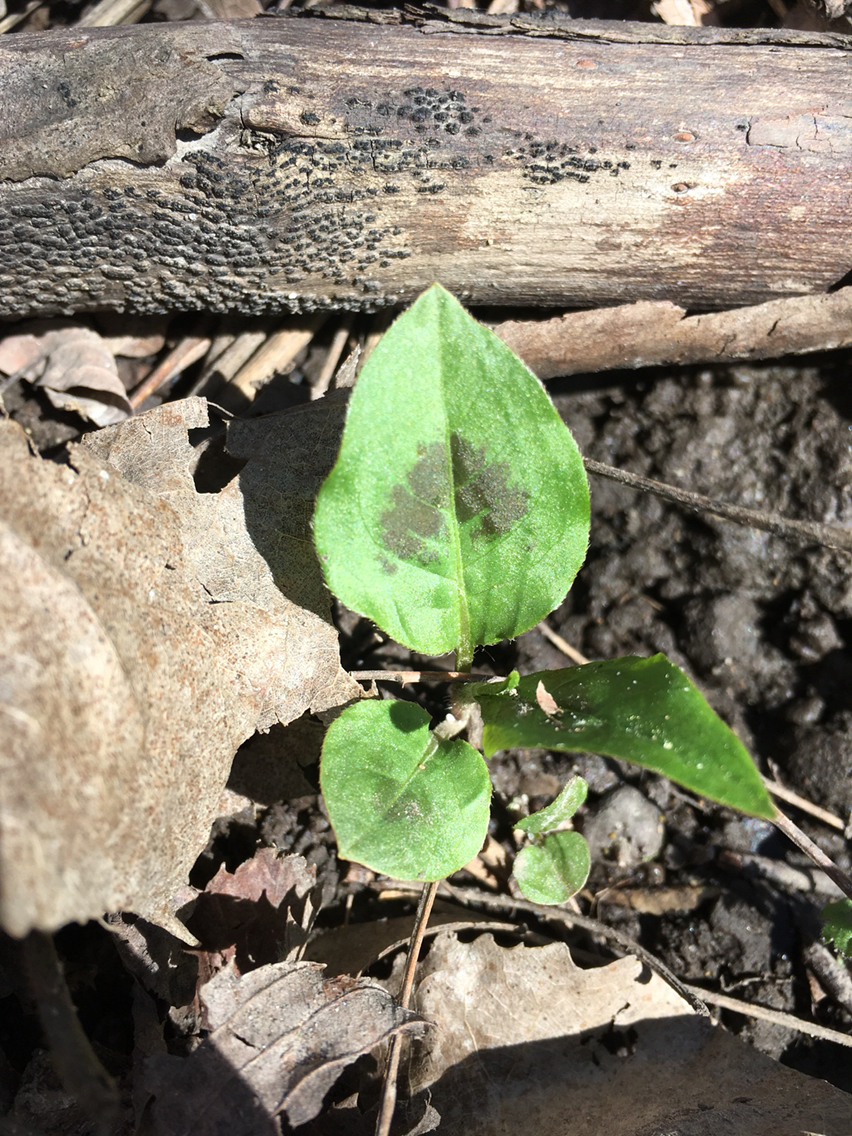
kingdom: Plantae
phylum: Tracheophyta
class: Magnoliopsida
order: Caryophyllales
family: Polygonaceae
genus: Persicaria
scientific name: Persicaria virginiana
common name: Jumpseed
